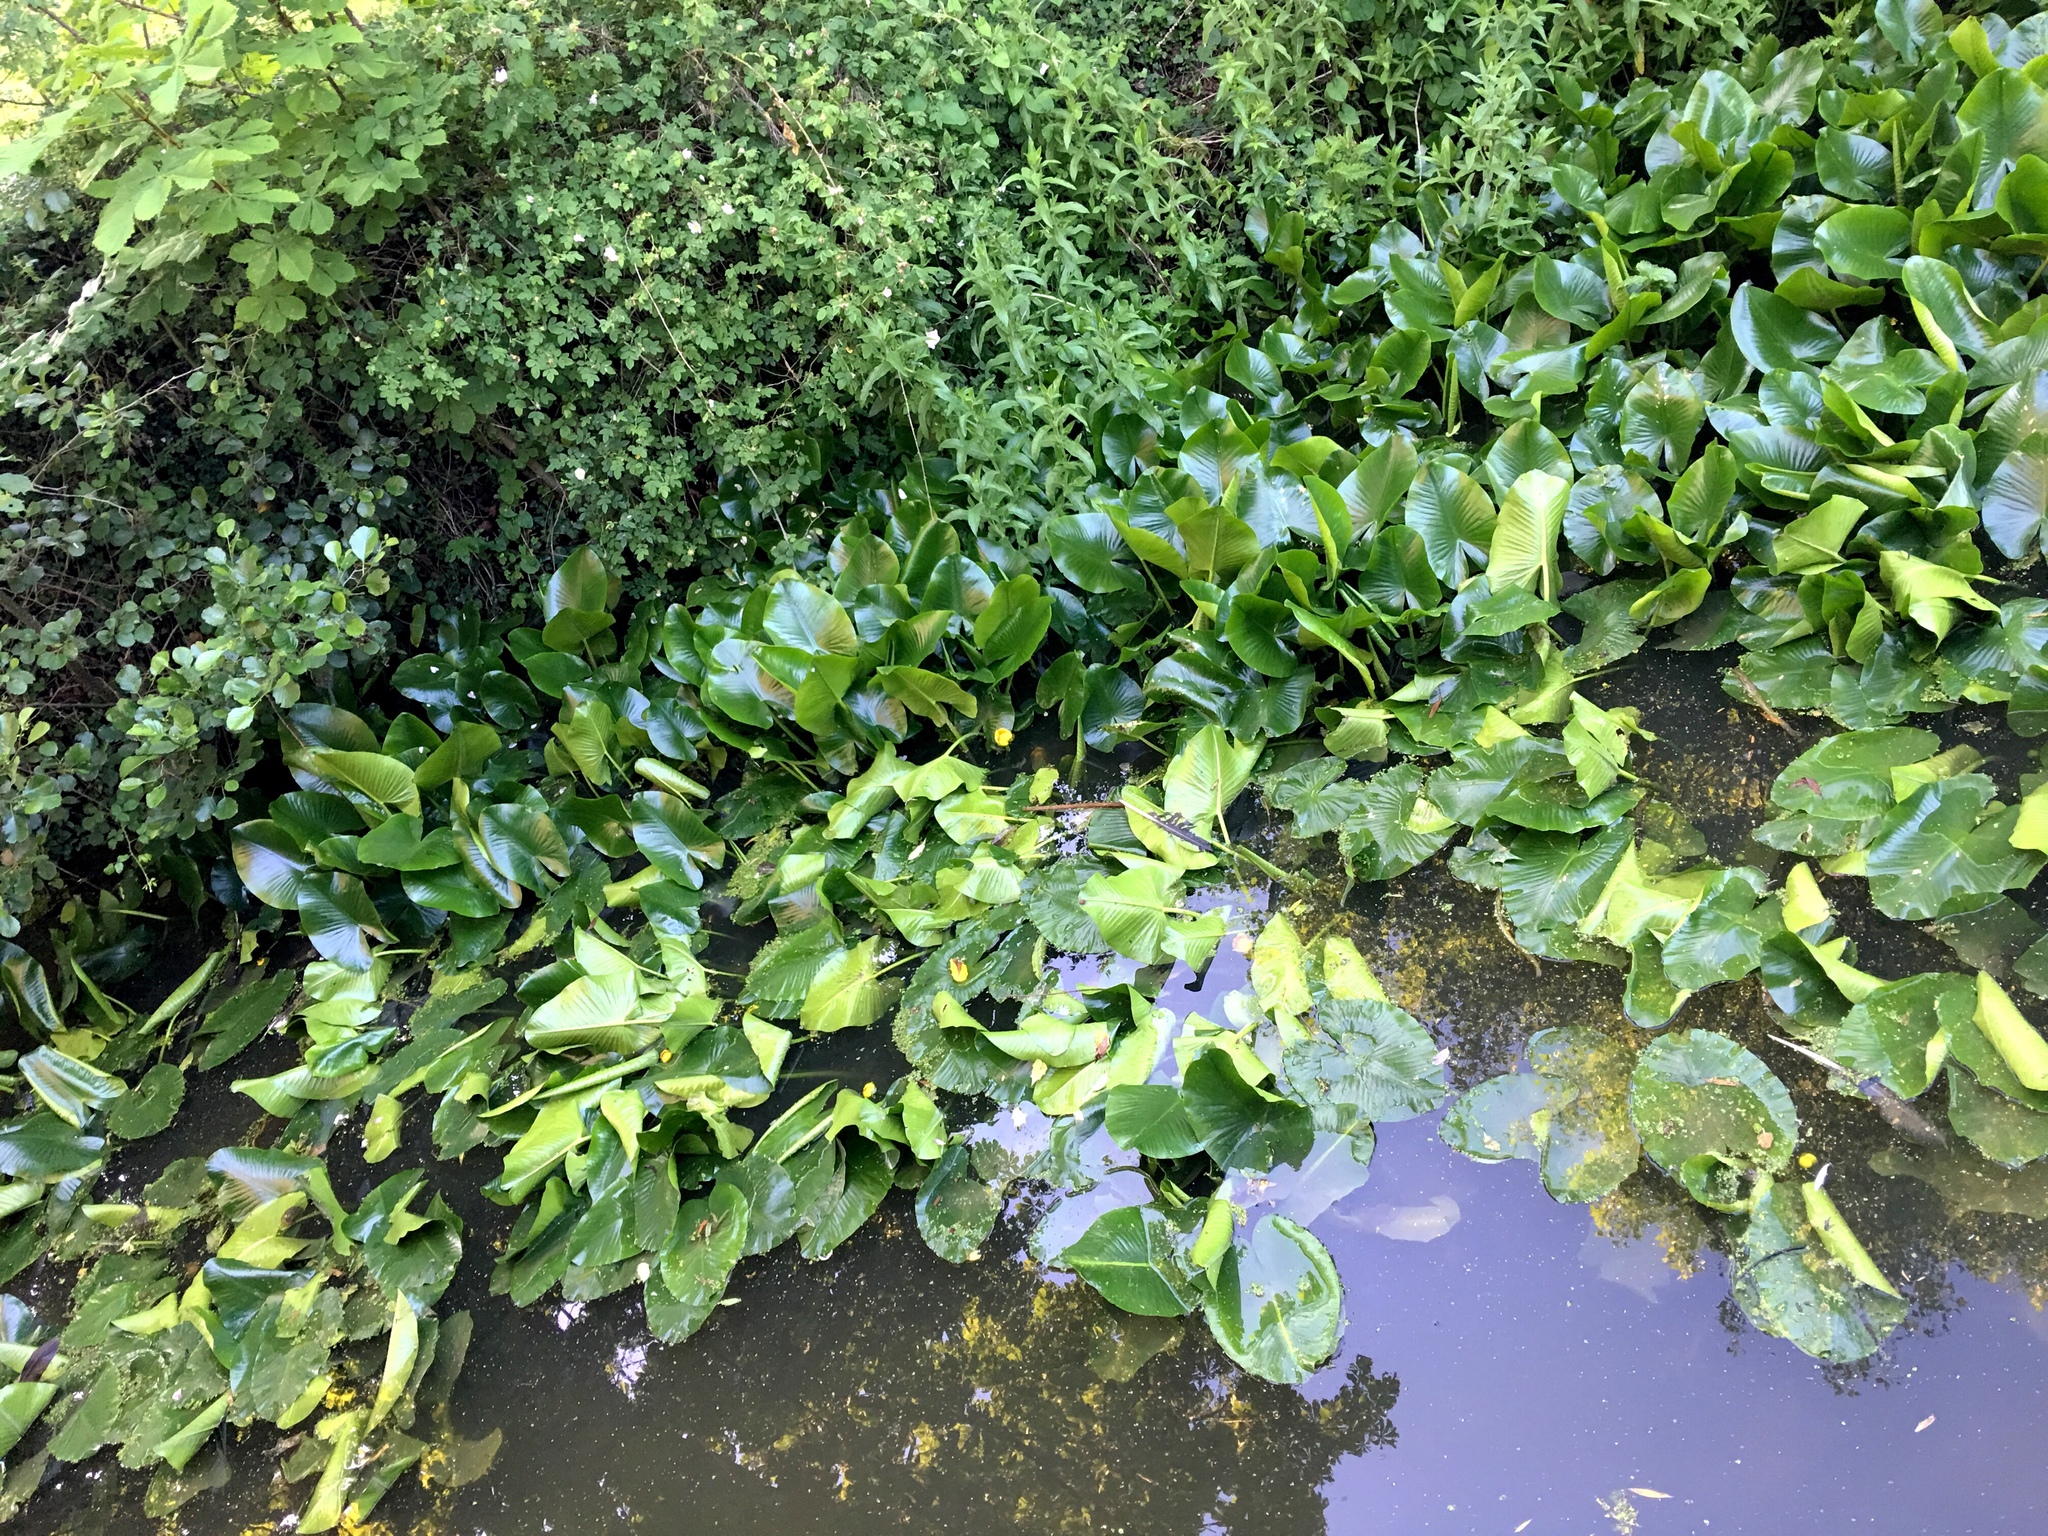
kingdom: Plantae
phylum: Tracheophyta
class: Magnoliopsida
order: Nymphaeales
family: Nymphaeaceae
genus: Nuphar
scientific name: Nuphar lutea
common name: Yellow water-lily
